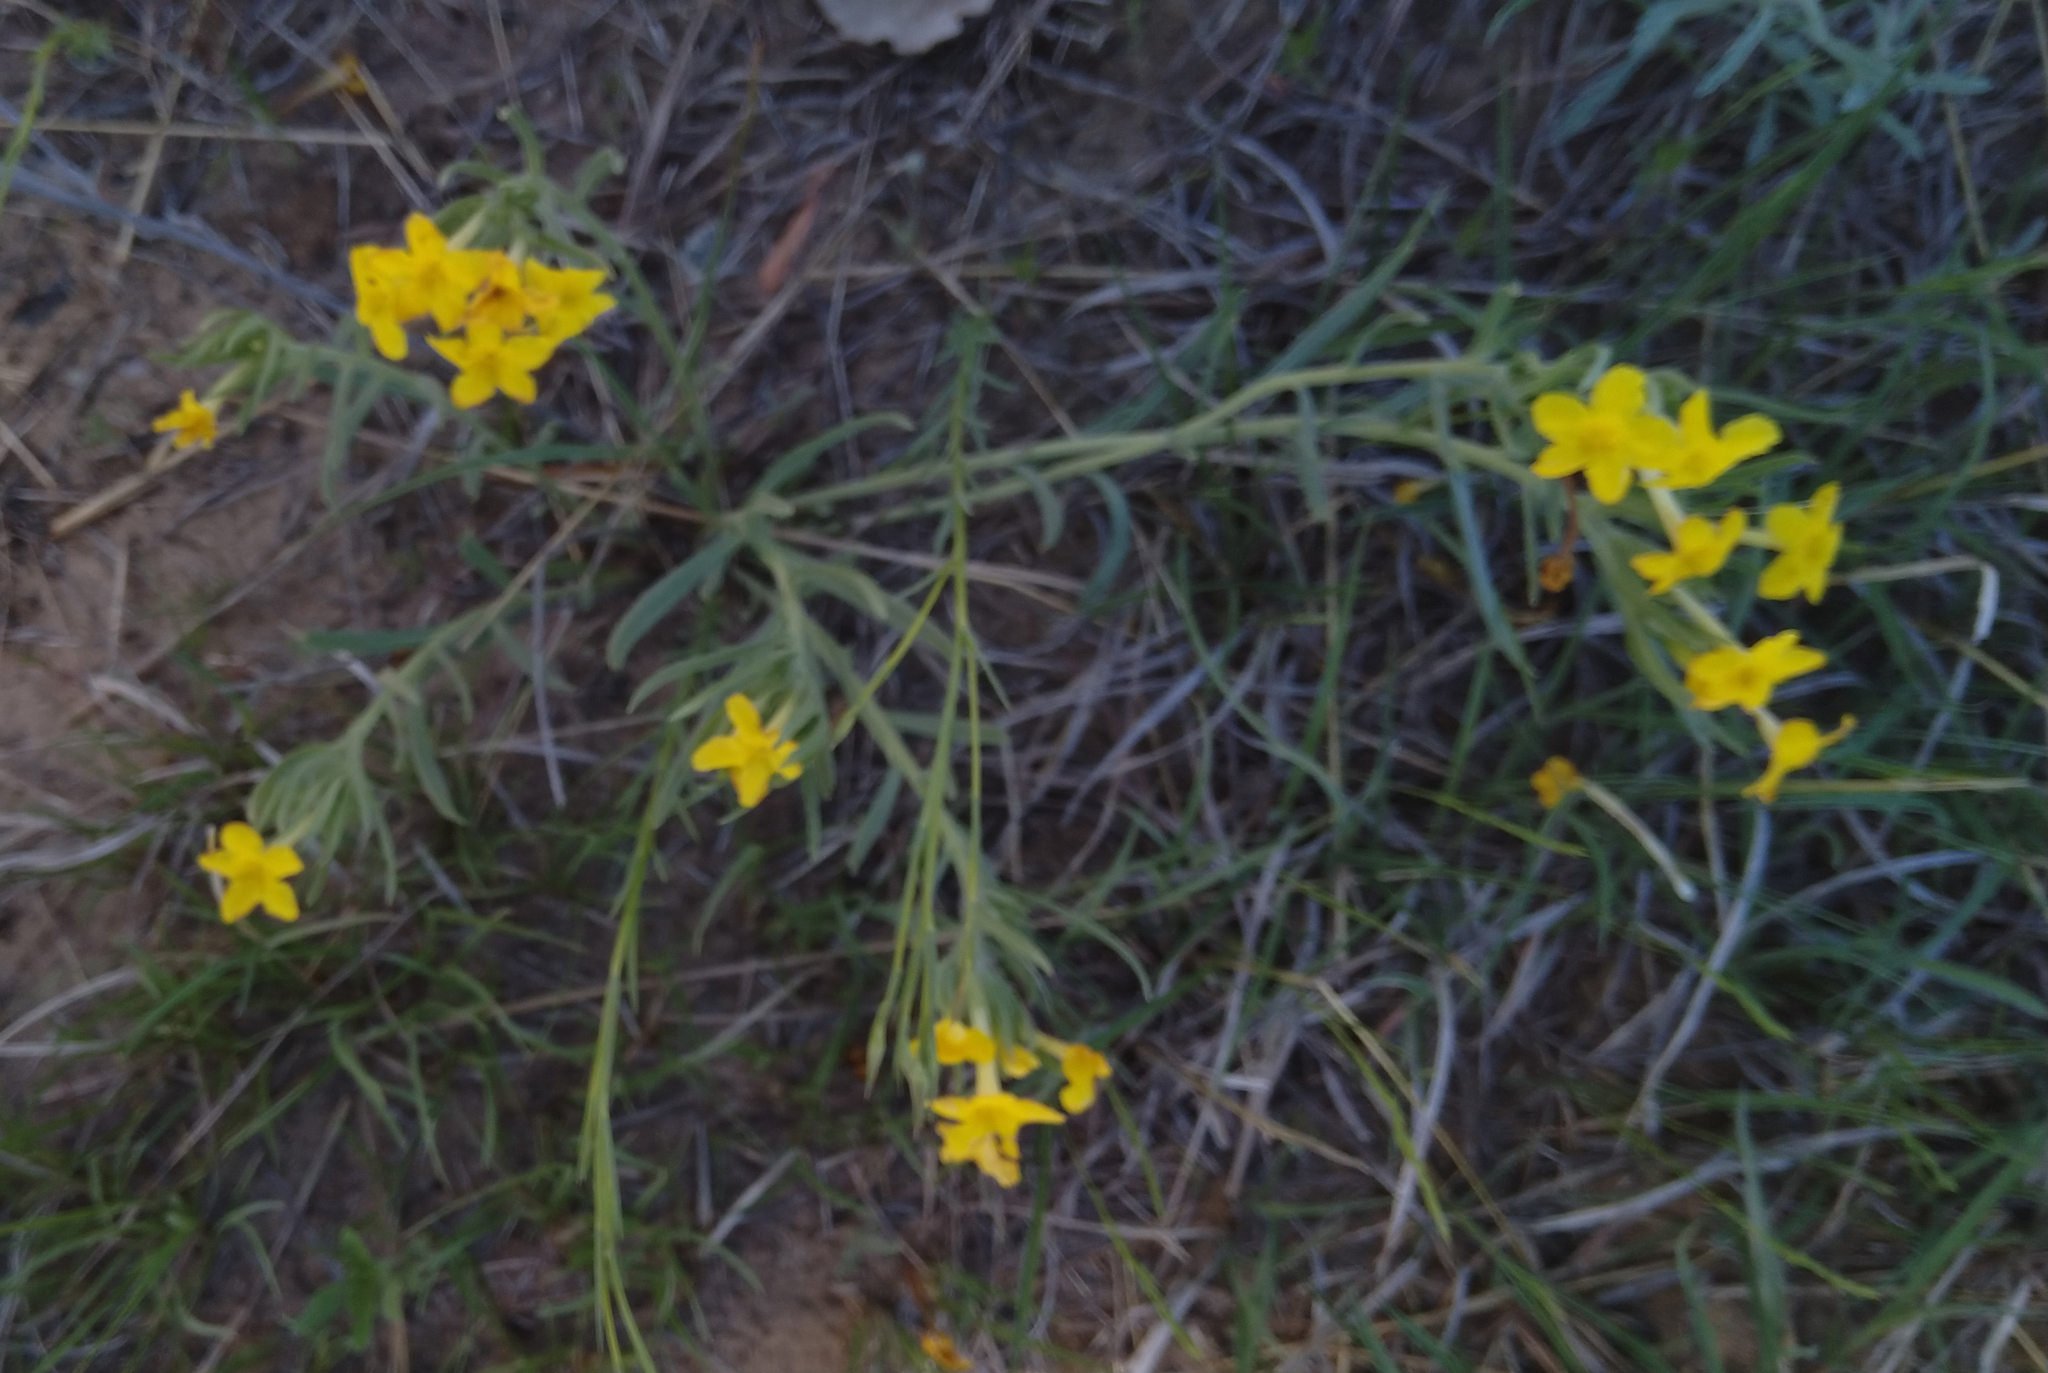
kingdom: Plantae
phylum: Tracheophyta
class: Magnoliopsida
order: Boraginales
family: Boraginaceae
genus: Lithospermum
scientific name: Lithospermum incisum
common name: Fringed gromwell
